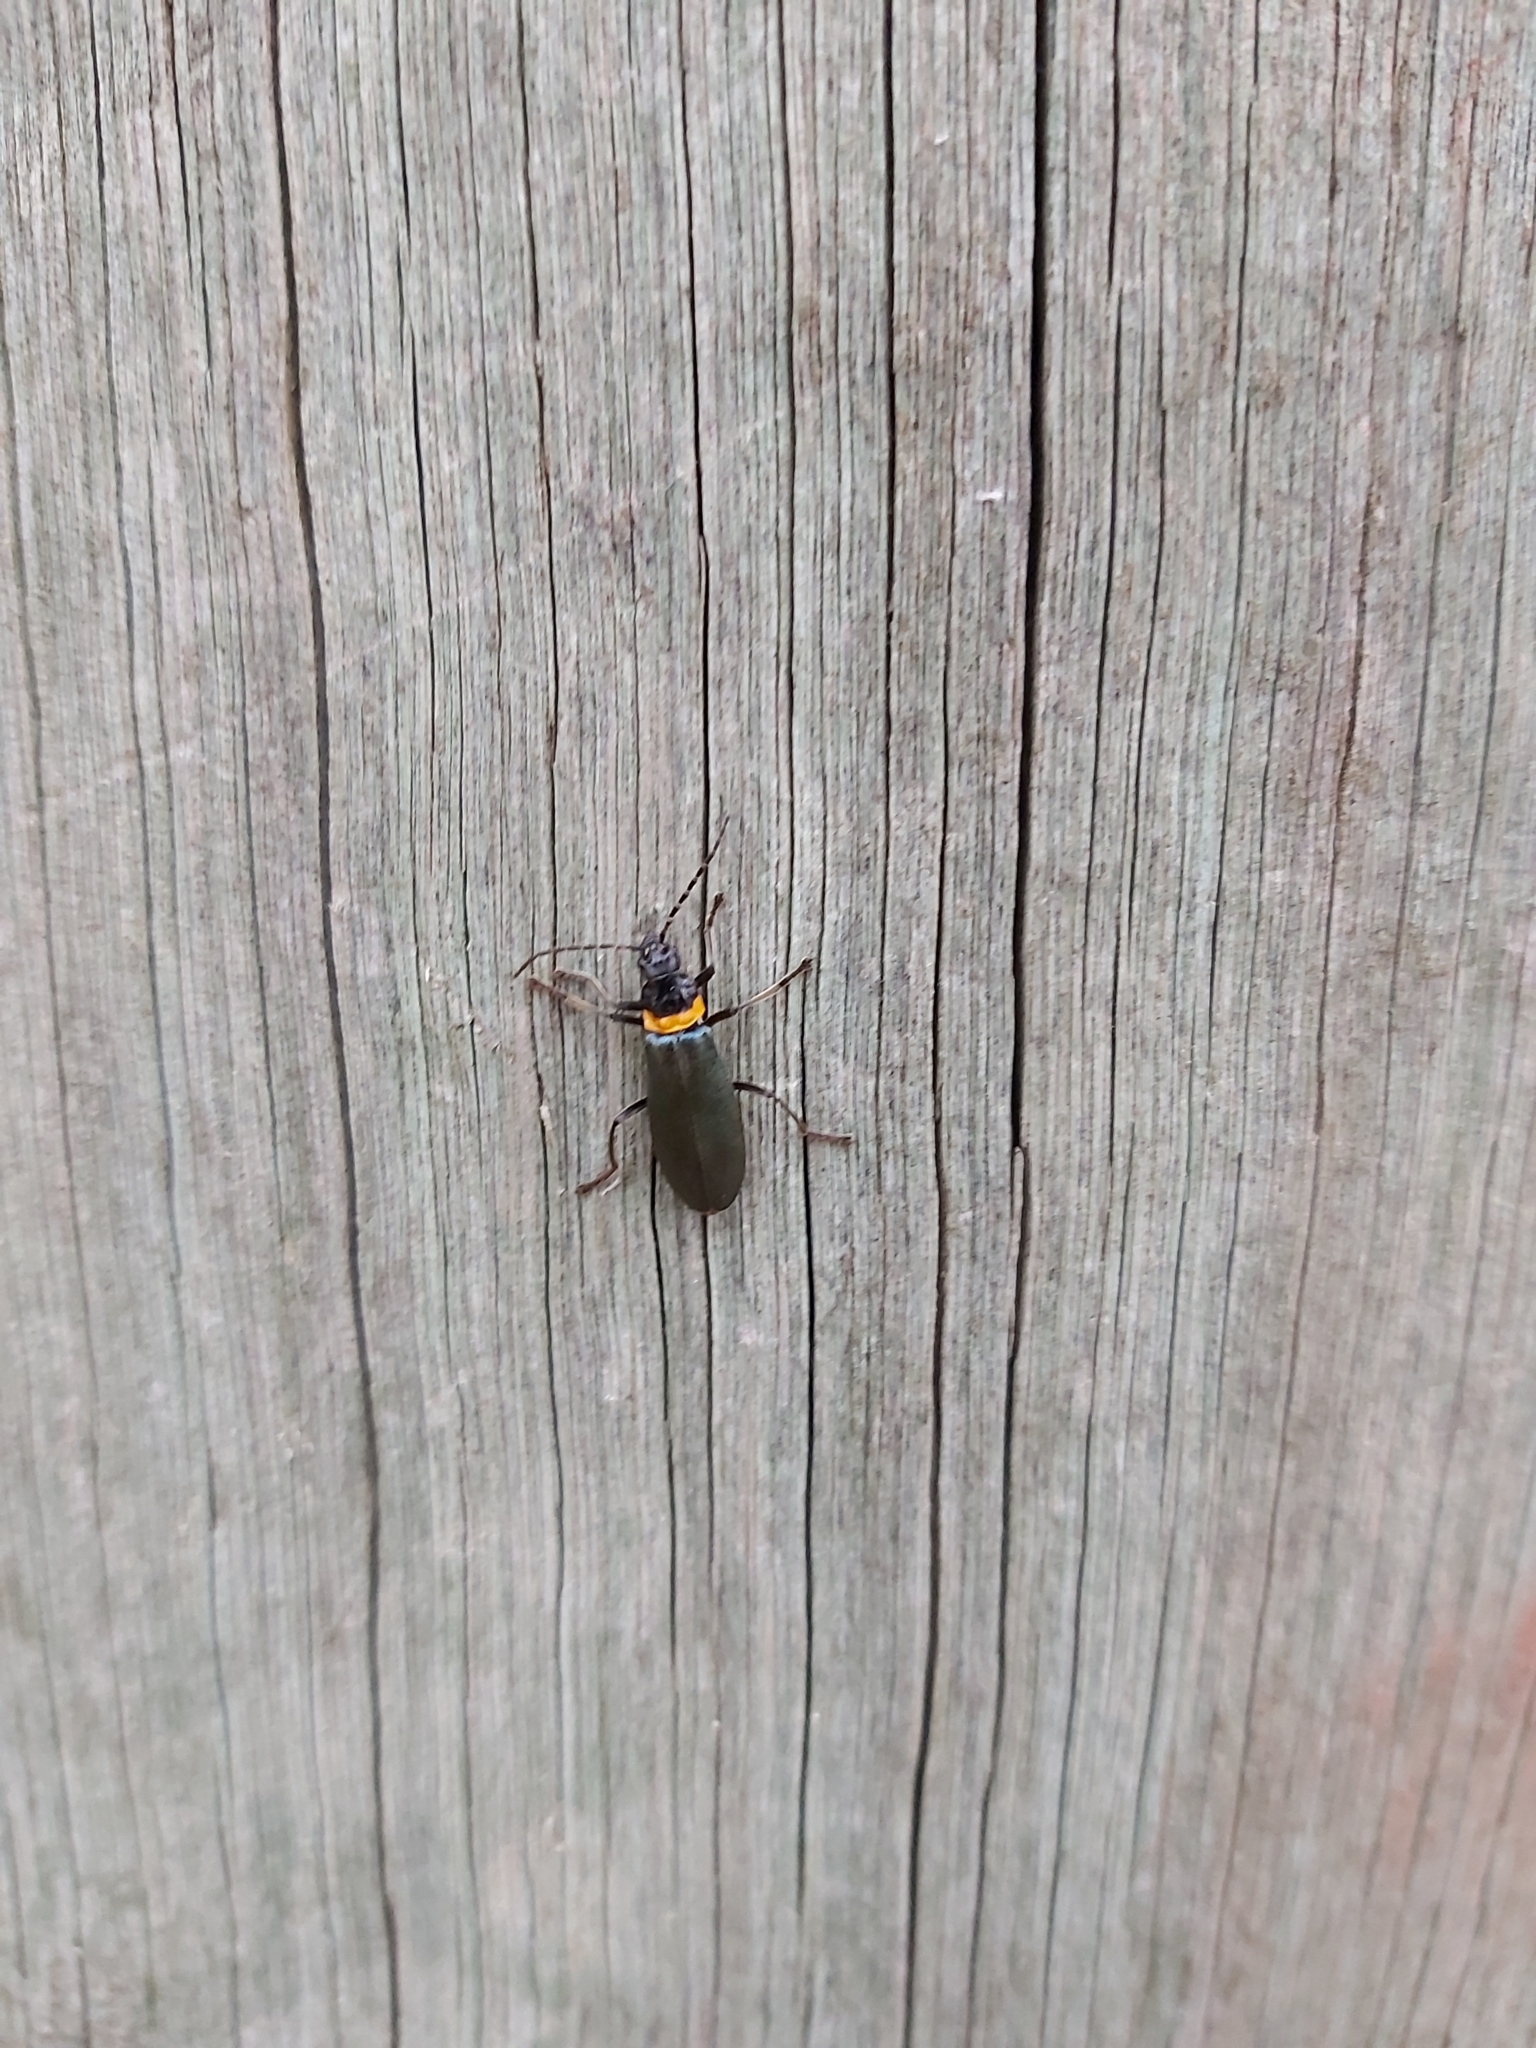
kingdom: Animalia
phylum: Arthropoda
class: Insecta
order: Coleoptera
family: Cantharidae
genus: Chauliognathus
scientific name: Chauliognathus
